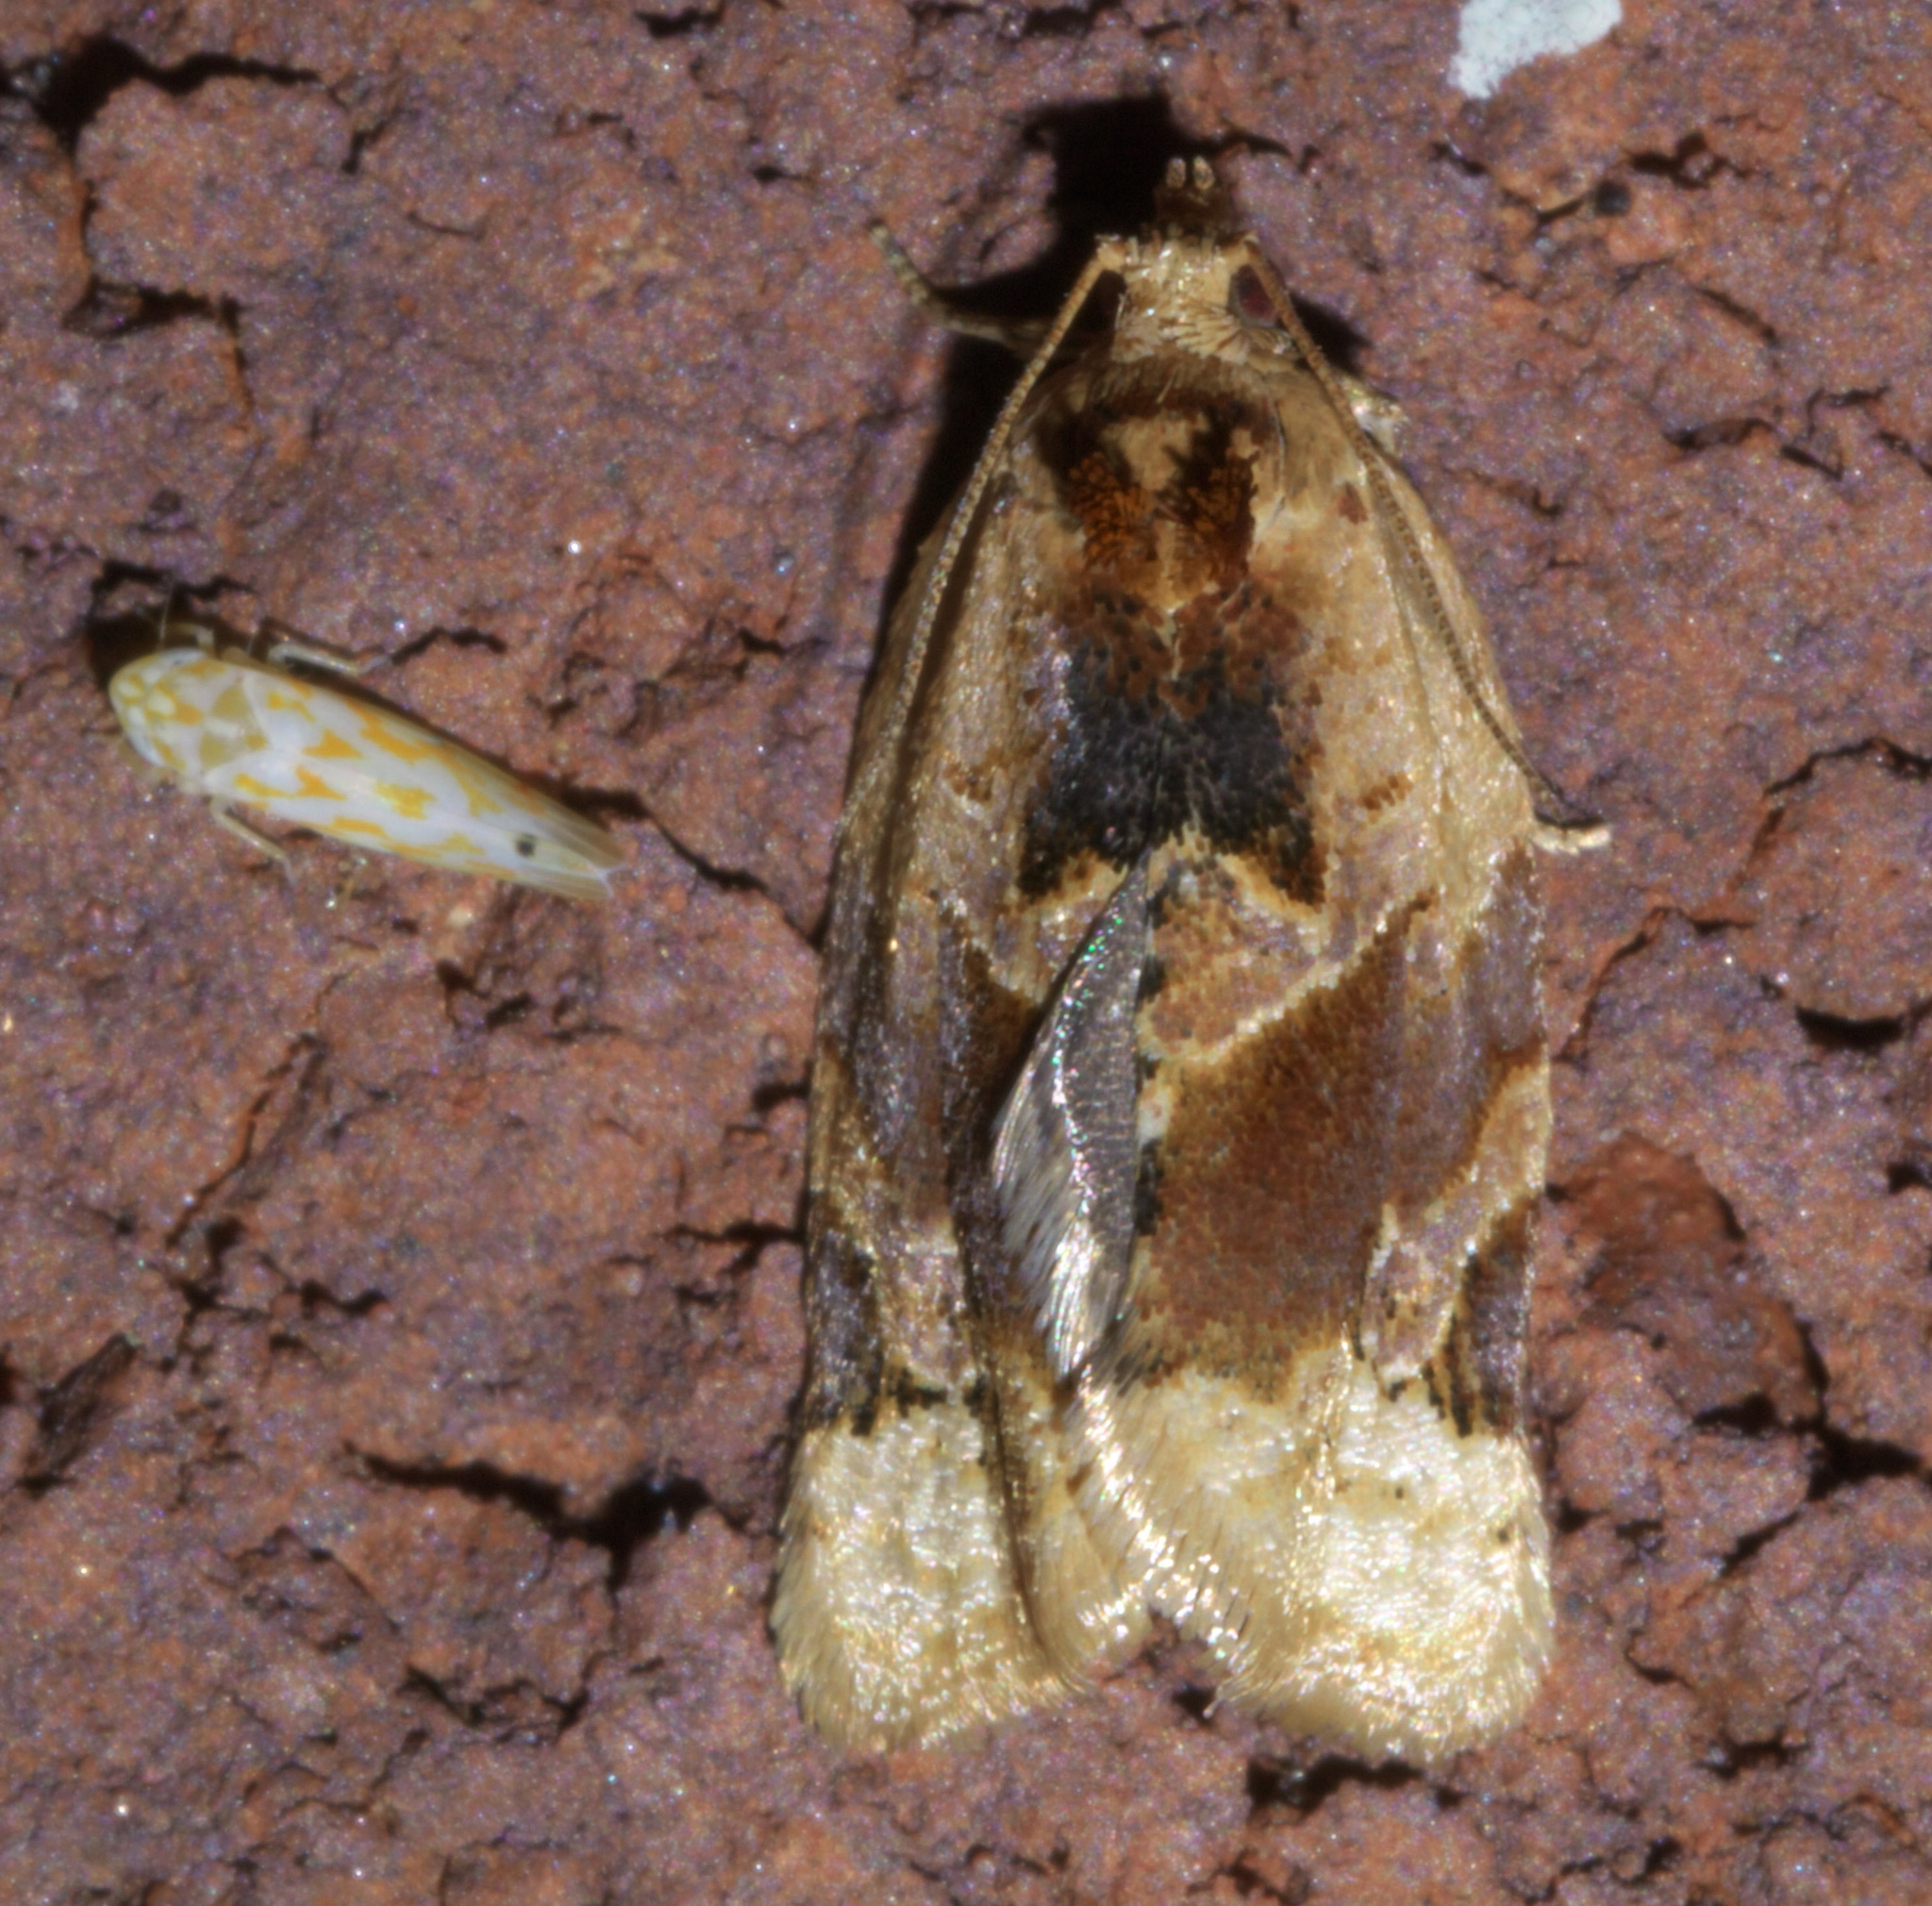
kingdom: Animalia
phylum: Arthropoda
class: Insecta
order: Lepidoptera
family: Tortricidae
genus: Argyrotaenia
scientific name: Argyrotaenia velutinana
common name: Red-banded leafroller moth
